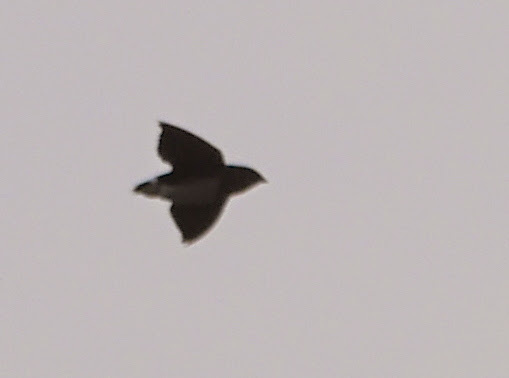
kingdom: Animalia
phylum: Chordata
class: Aves
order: Apodiformes
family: Apodidae
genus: Neafrapus
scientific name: Neafrapus cassini
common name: Cassin's spinetail
